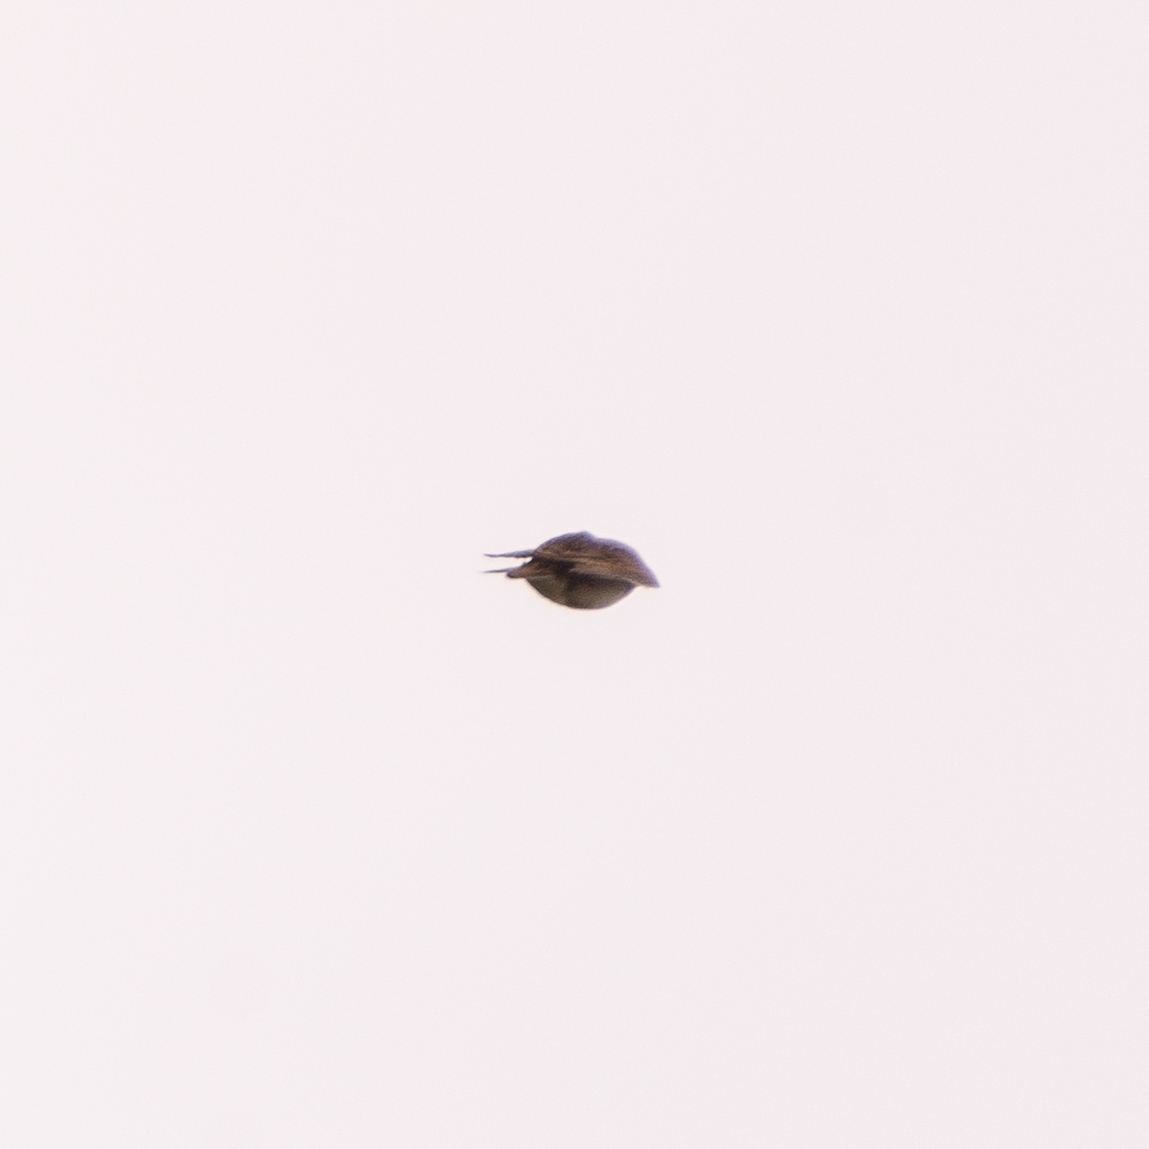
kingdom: Animalia
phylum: Chordata
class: Aves
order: Passeriformes
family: Alaudidae
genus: Alauda
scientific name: Alauda arvensis
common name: Eurasian skylark
